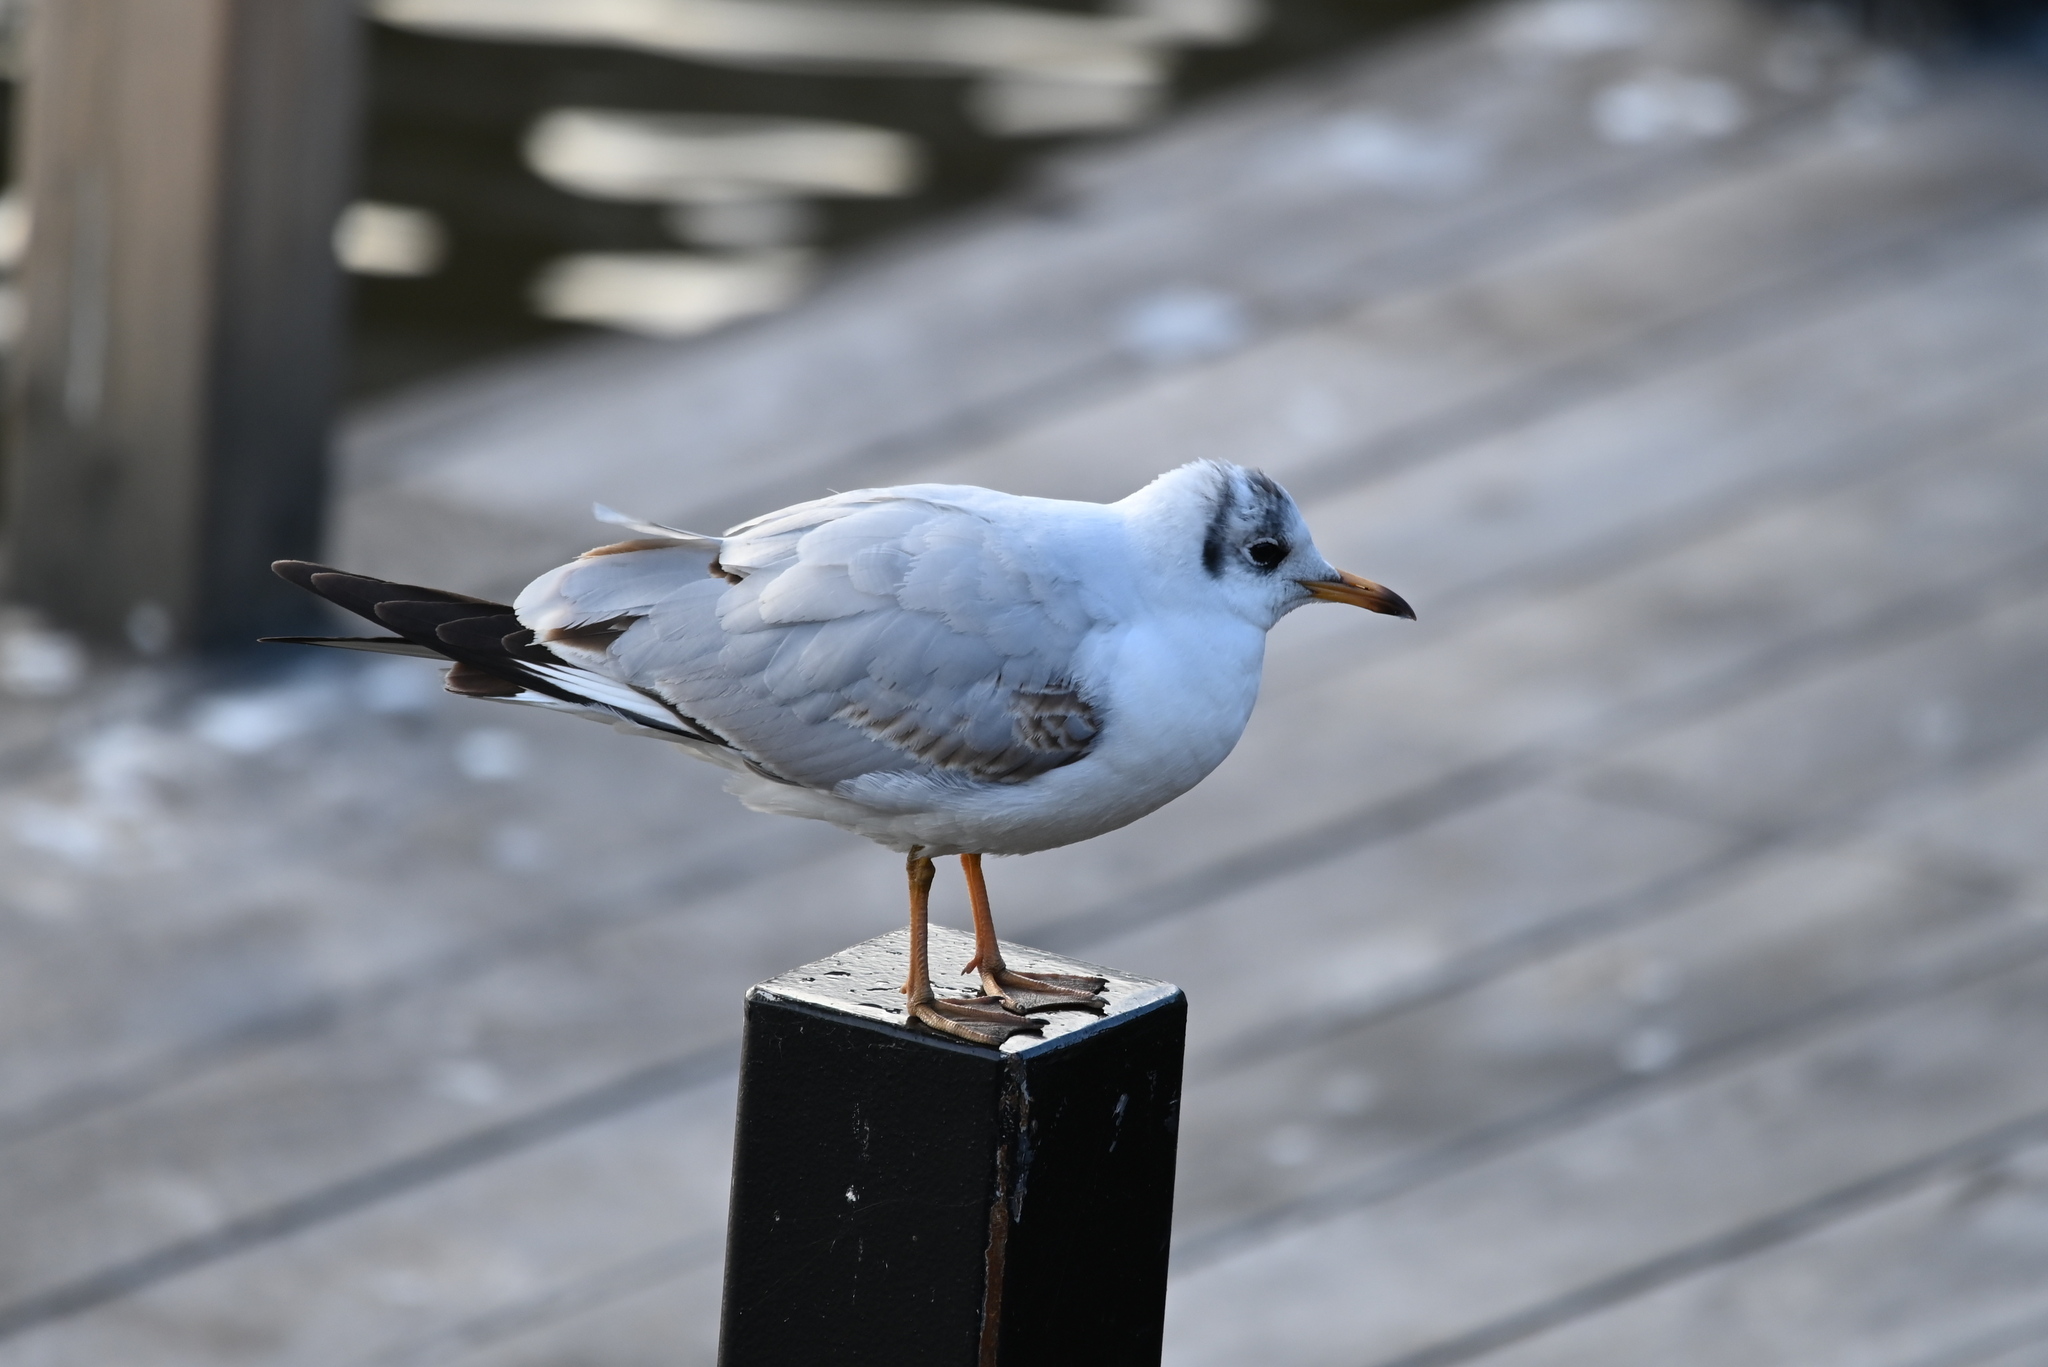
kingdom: Animalia
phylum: Chordata
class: Aves
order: Charadriiformes
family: Laridae
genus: Chroicocephalus
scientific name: Chroicocephalus ridibundus
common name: Black-headed gull
